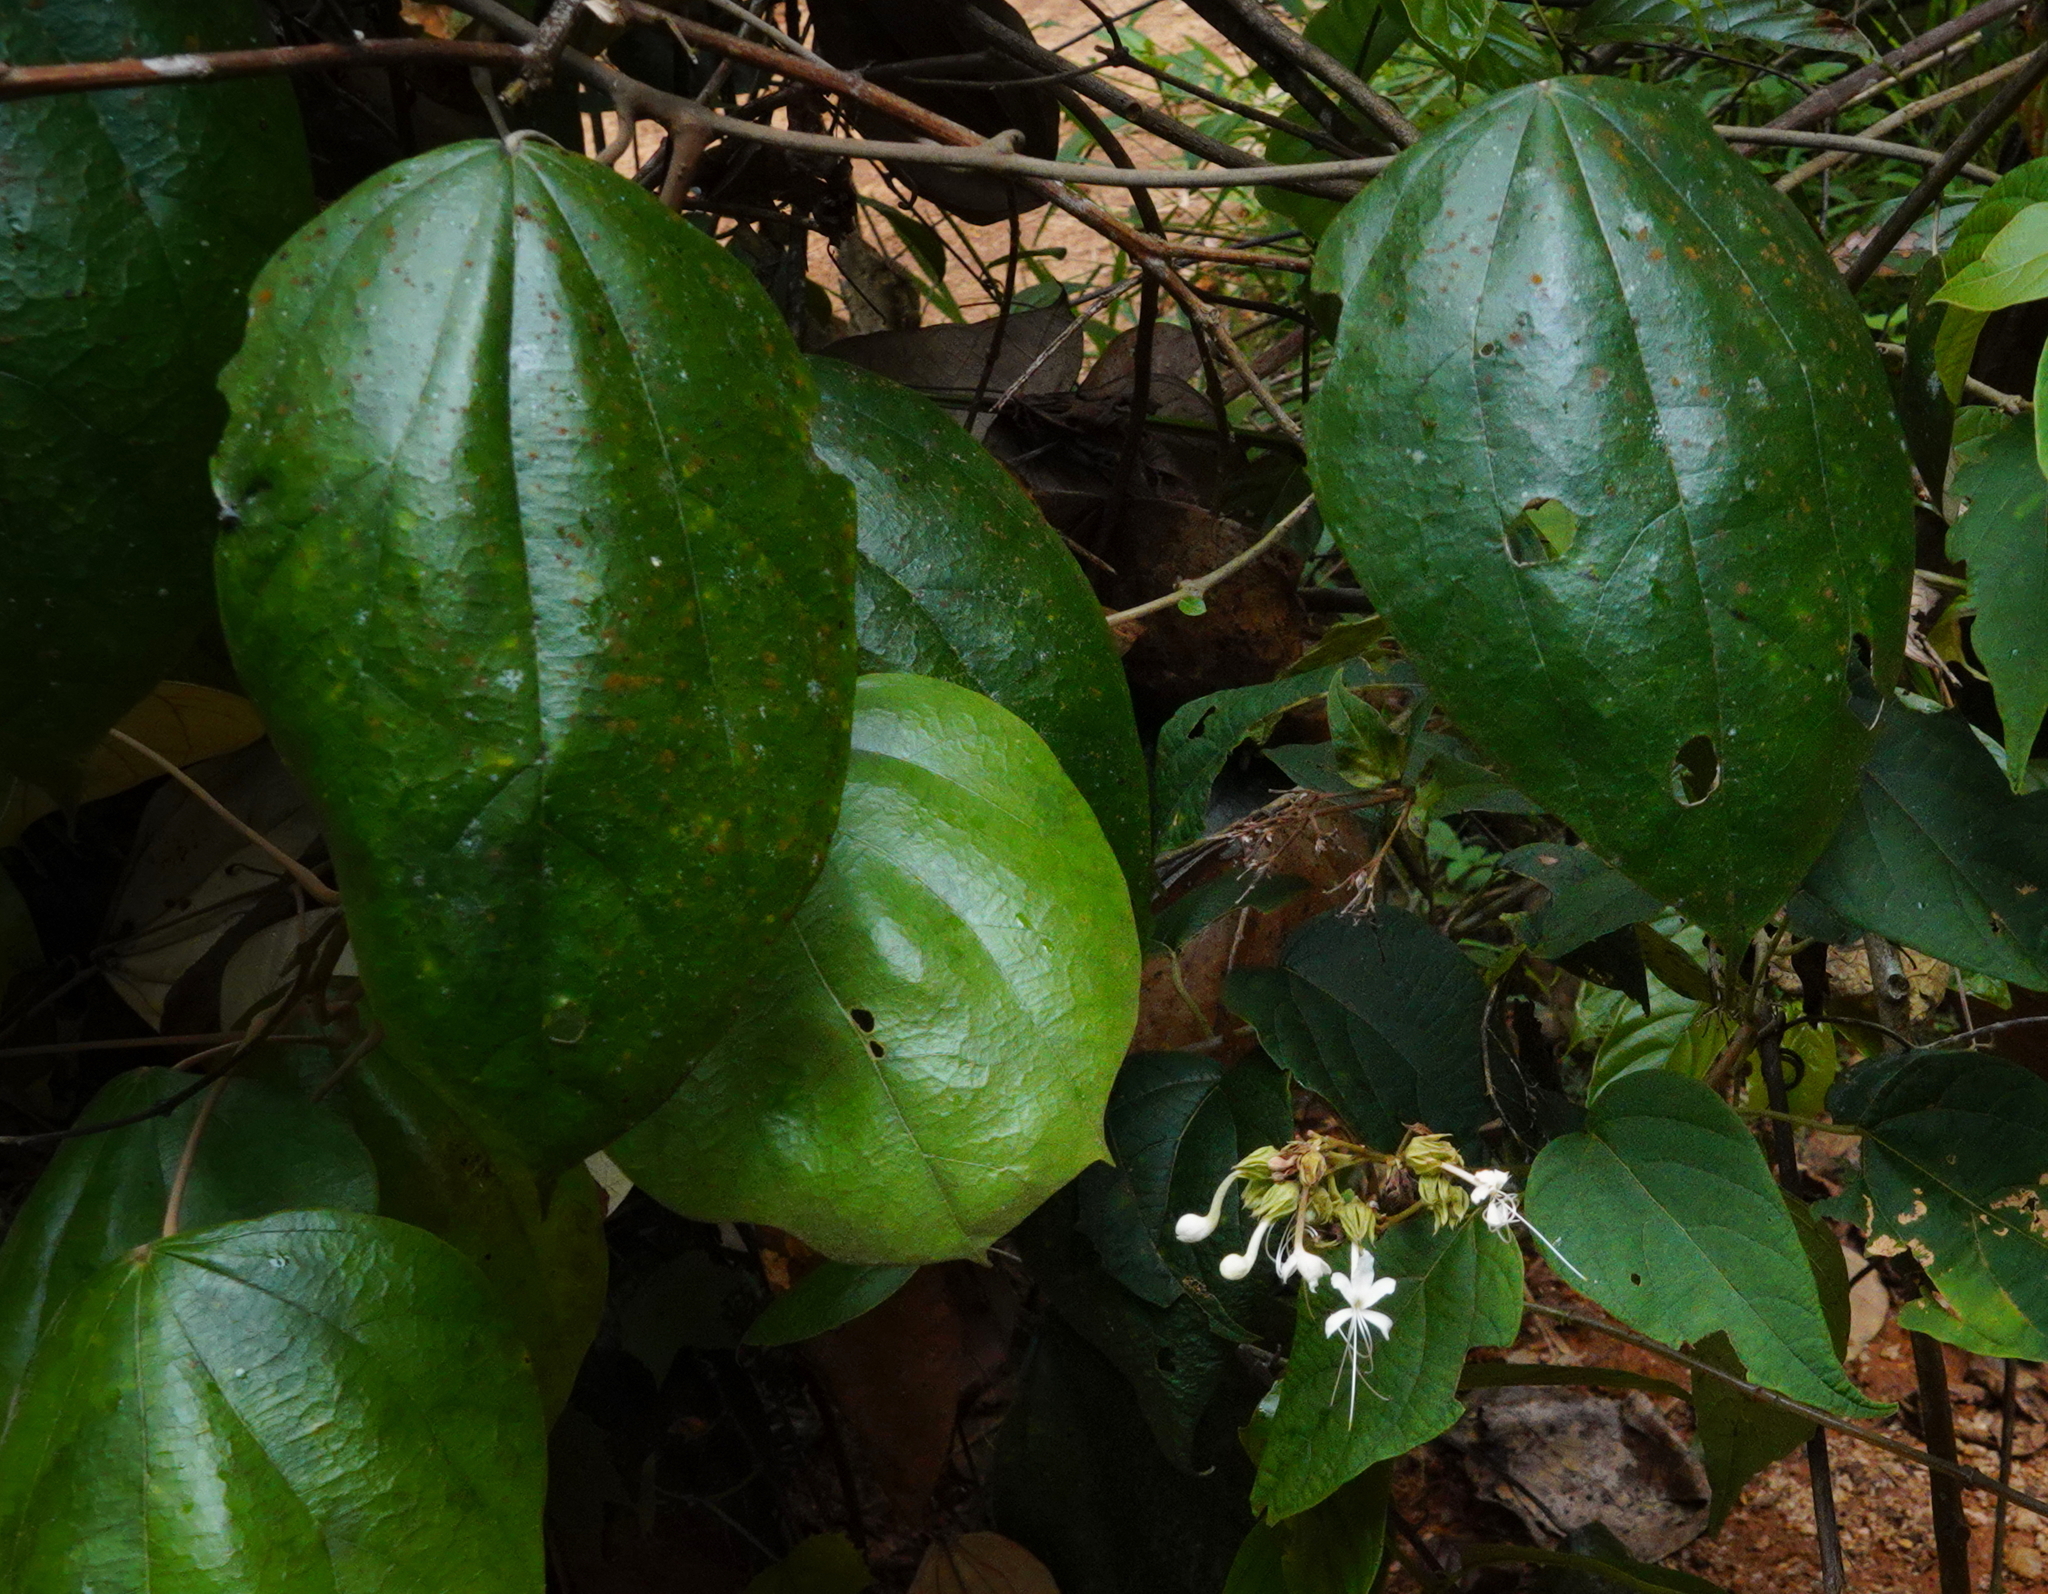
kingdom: Plantae
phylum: Tracheophyta
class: Magnoliopsida
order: Lamiales
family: Lamiaceae
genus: Clerodendrum
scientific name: Clerodendrum infortunatum
